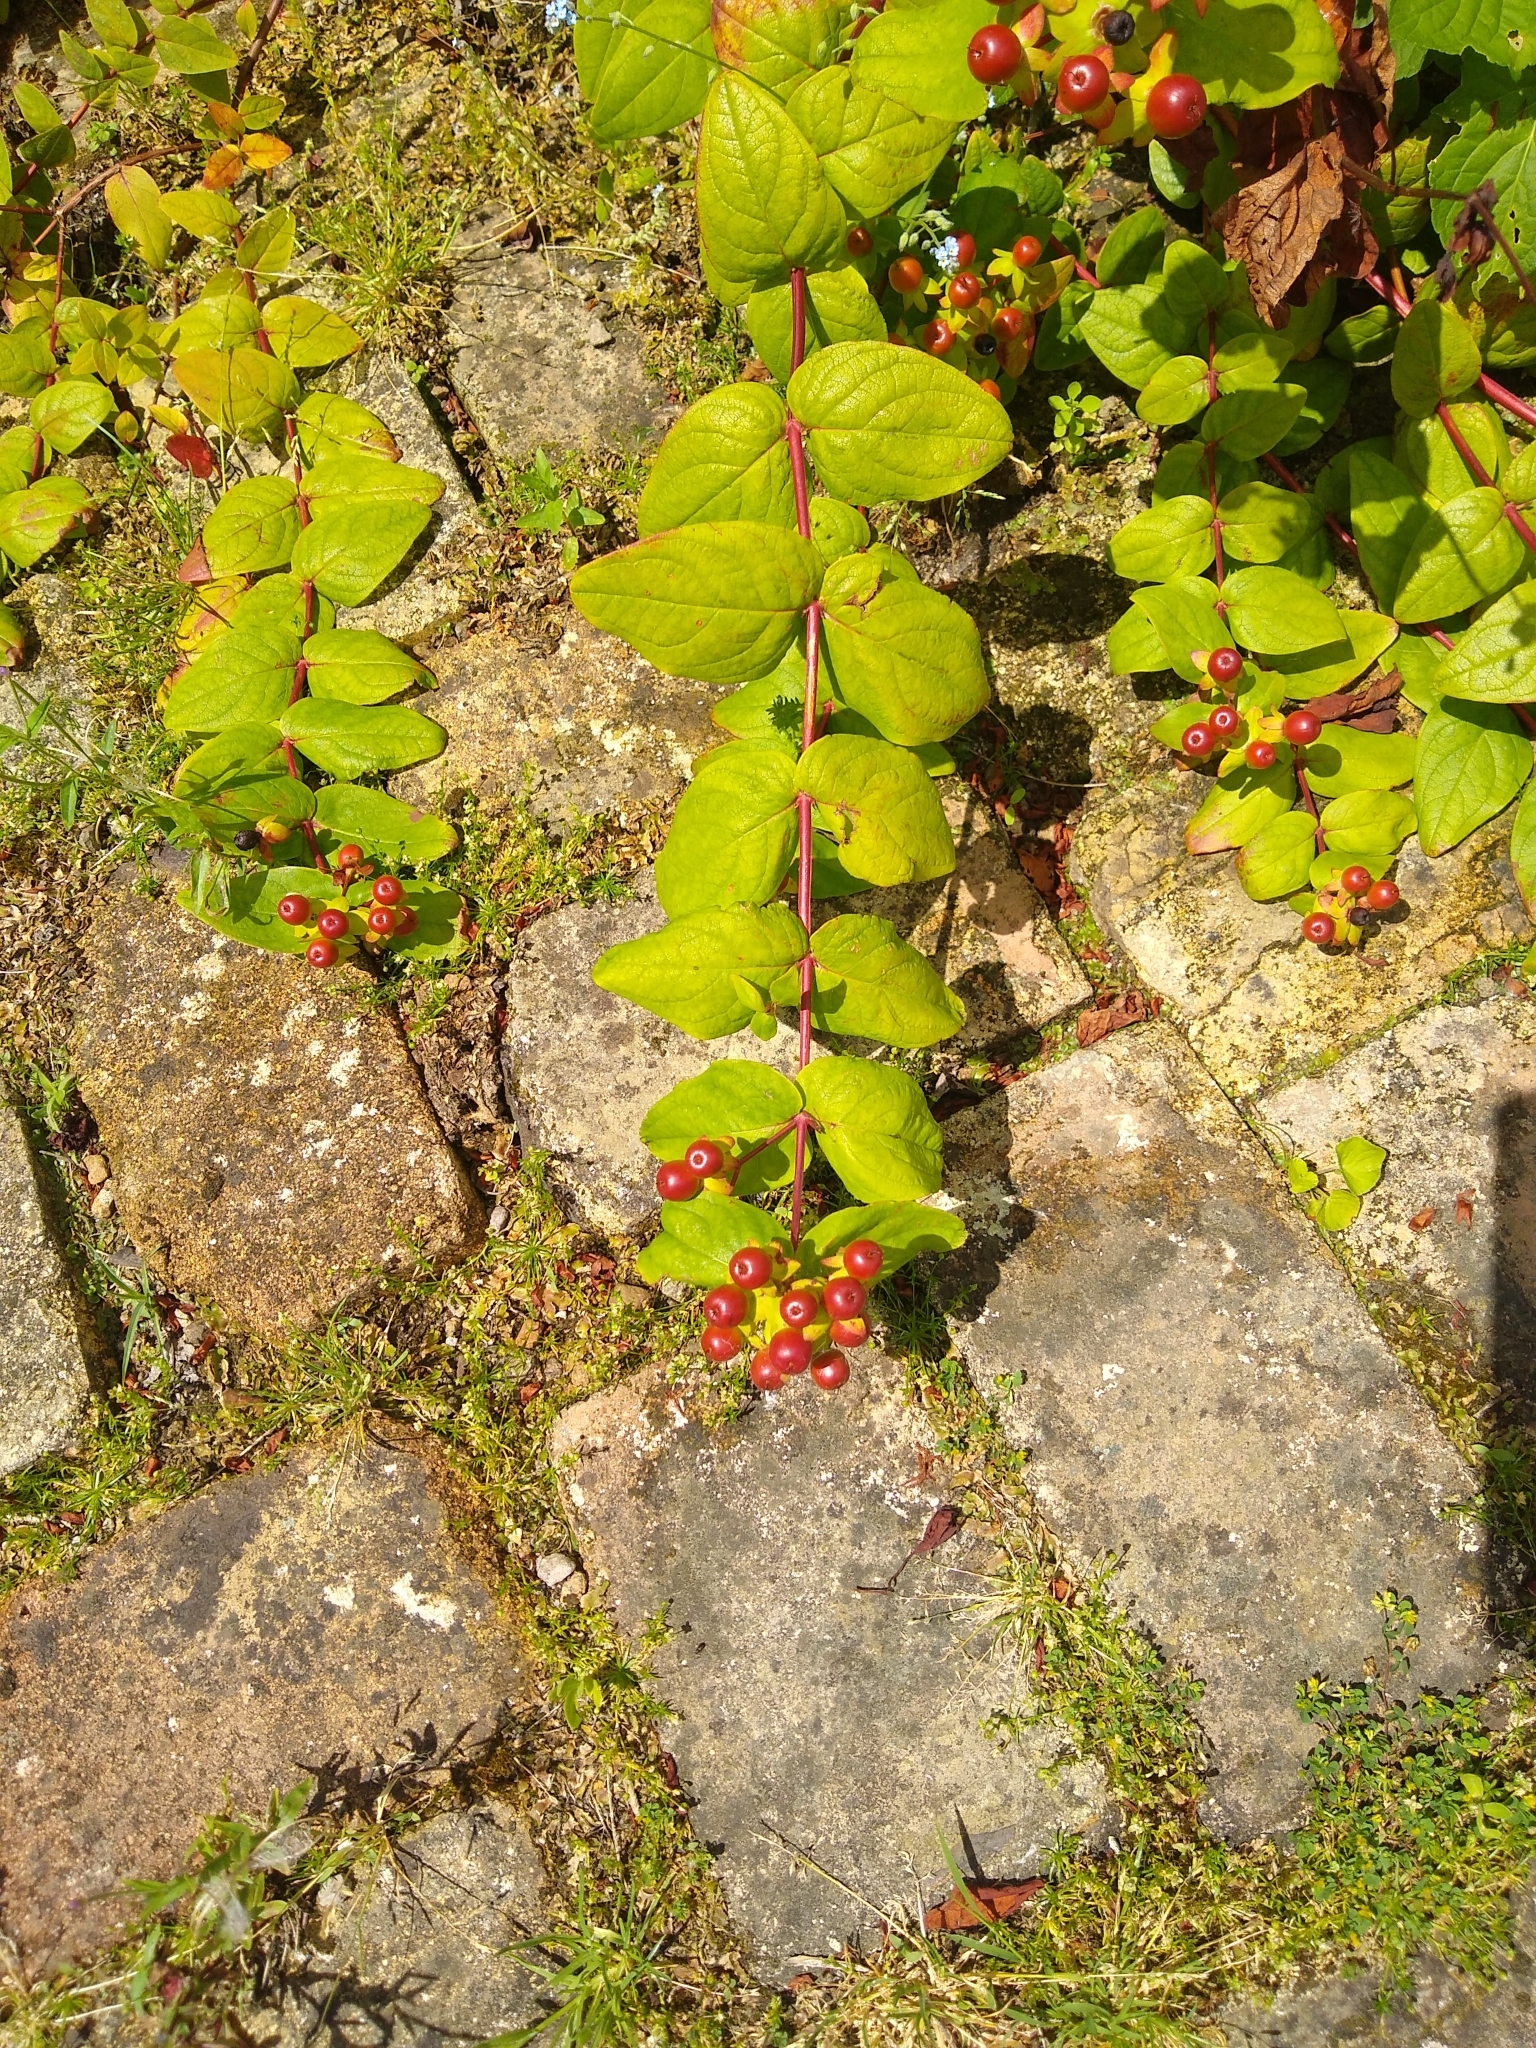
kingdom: Plantae
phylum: Tracheophyta
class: Magnoliopsida
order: Malpighiales
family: Hypericaceae
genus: Hypericum
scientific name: Hypericum androsaemum
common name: Sweet-amber
